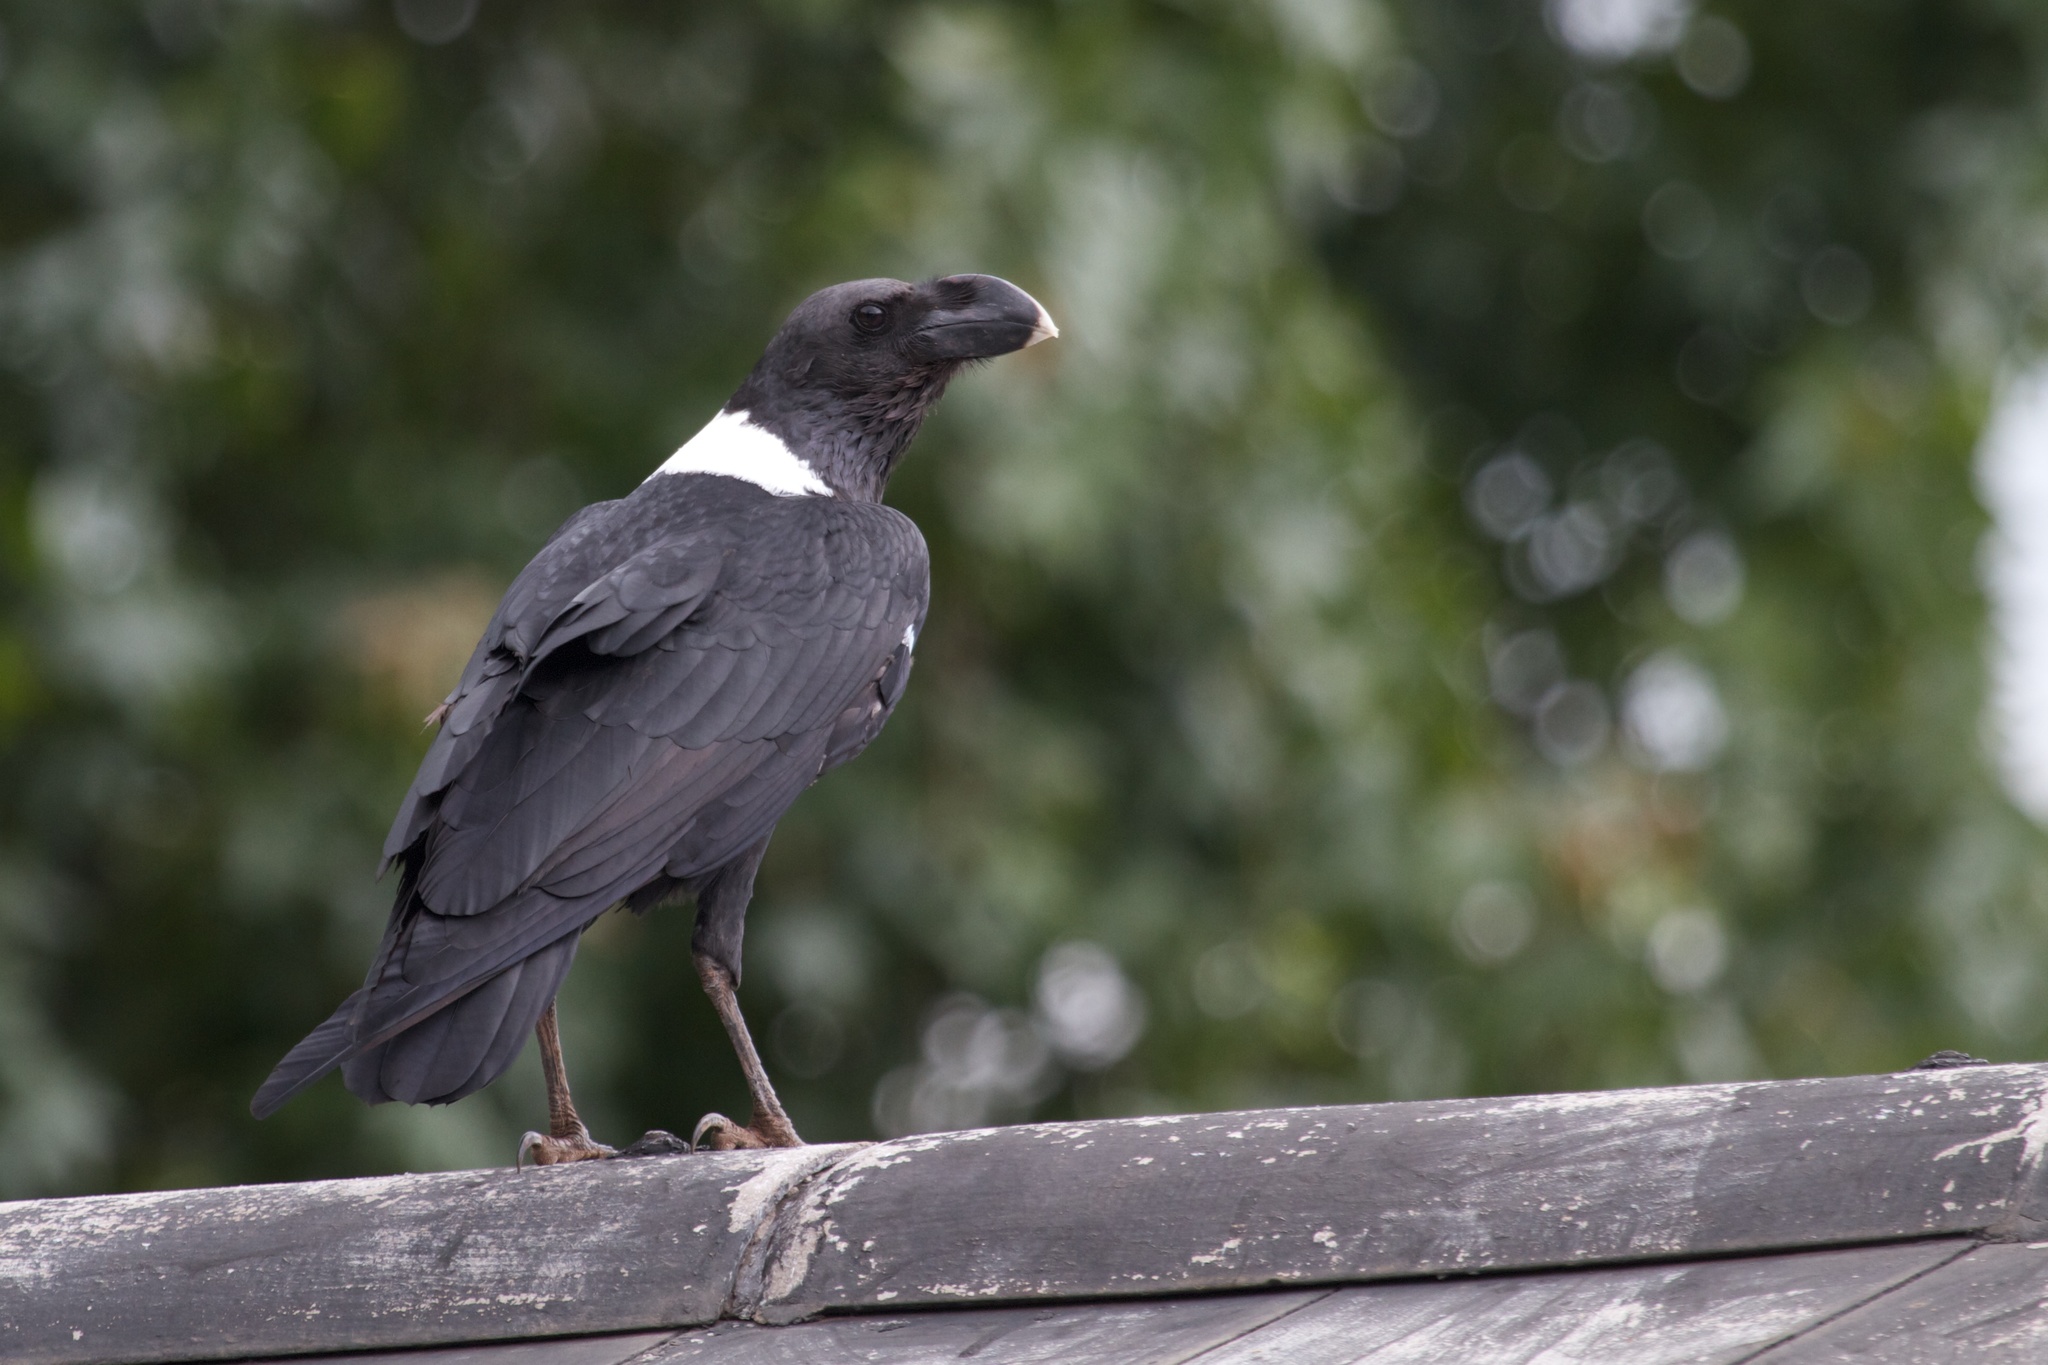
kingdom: Animalia
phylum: Chordata
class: Aves
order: Passeriformes
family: Corvidae
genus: Corvus
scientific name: Corvus albicollis
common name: White-necked raven
